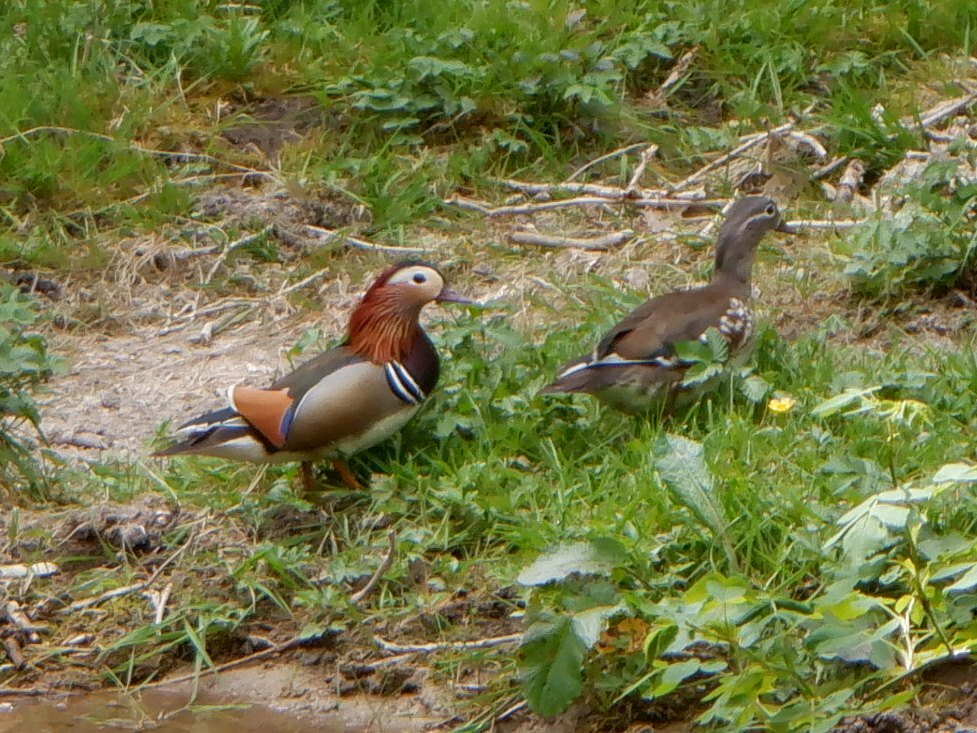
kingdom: Animalia
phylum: Chordata
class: Aves
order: Anseriformes
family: Anatidae
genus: Aix
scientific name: Aix galericulata
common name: Mandarin duck
